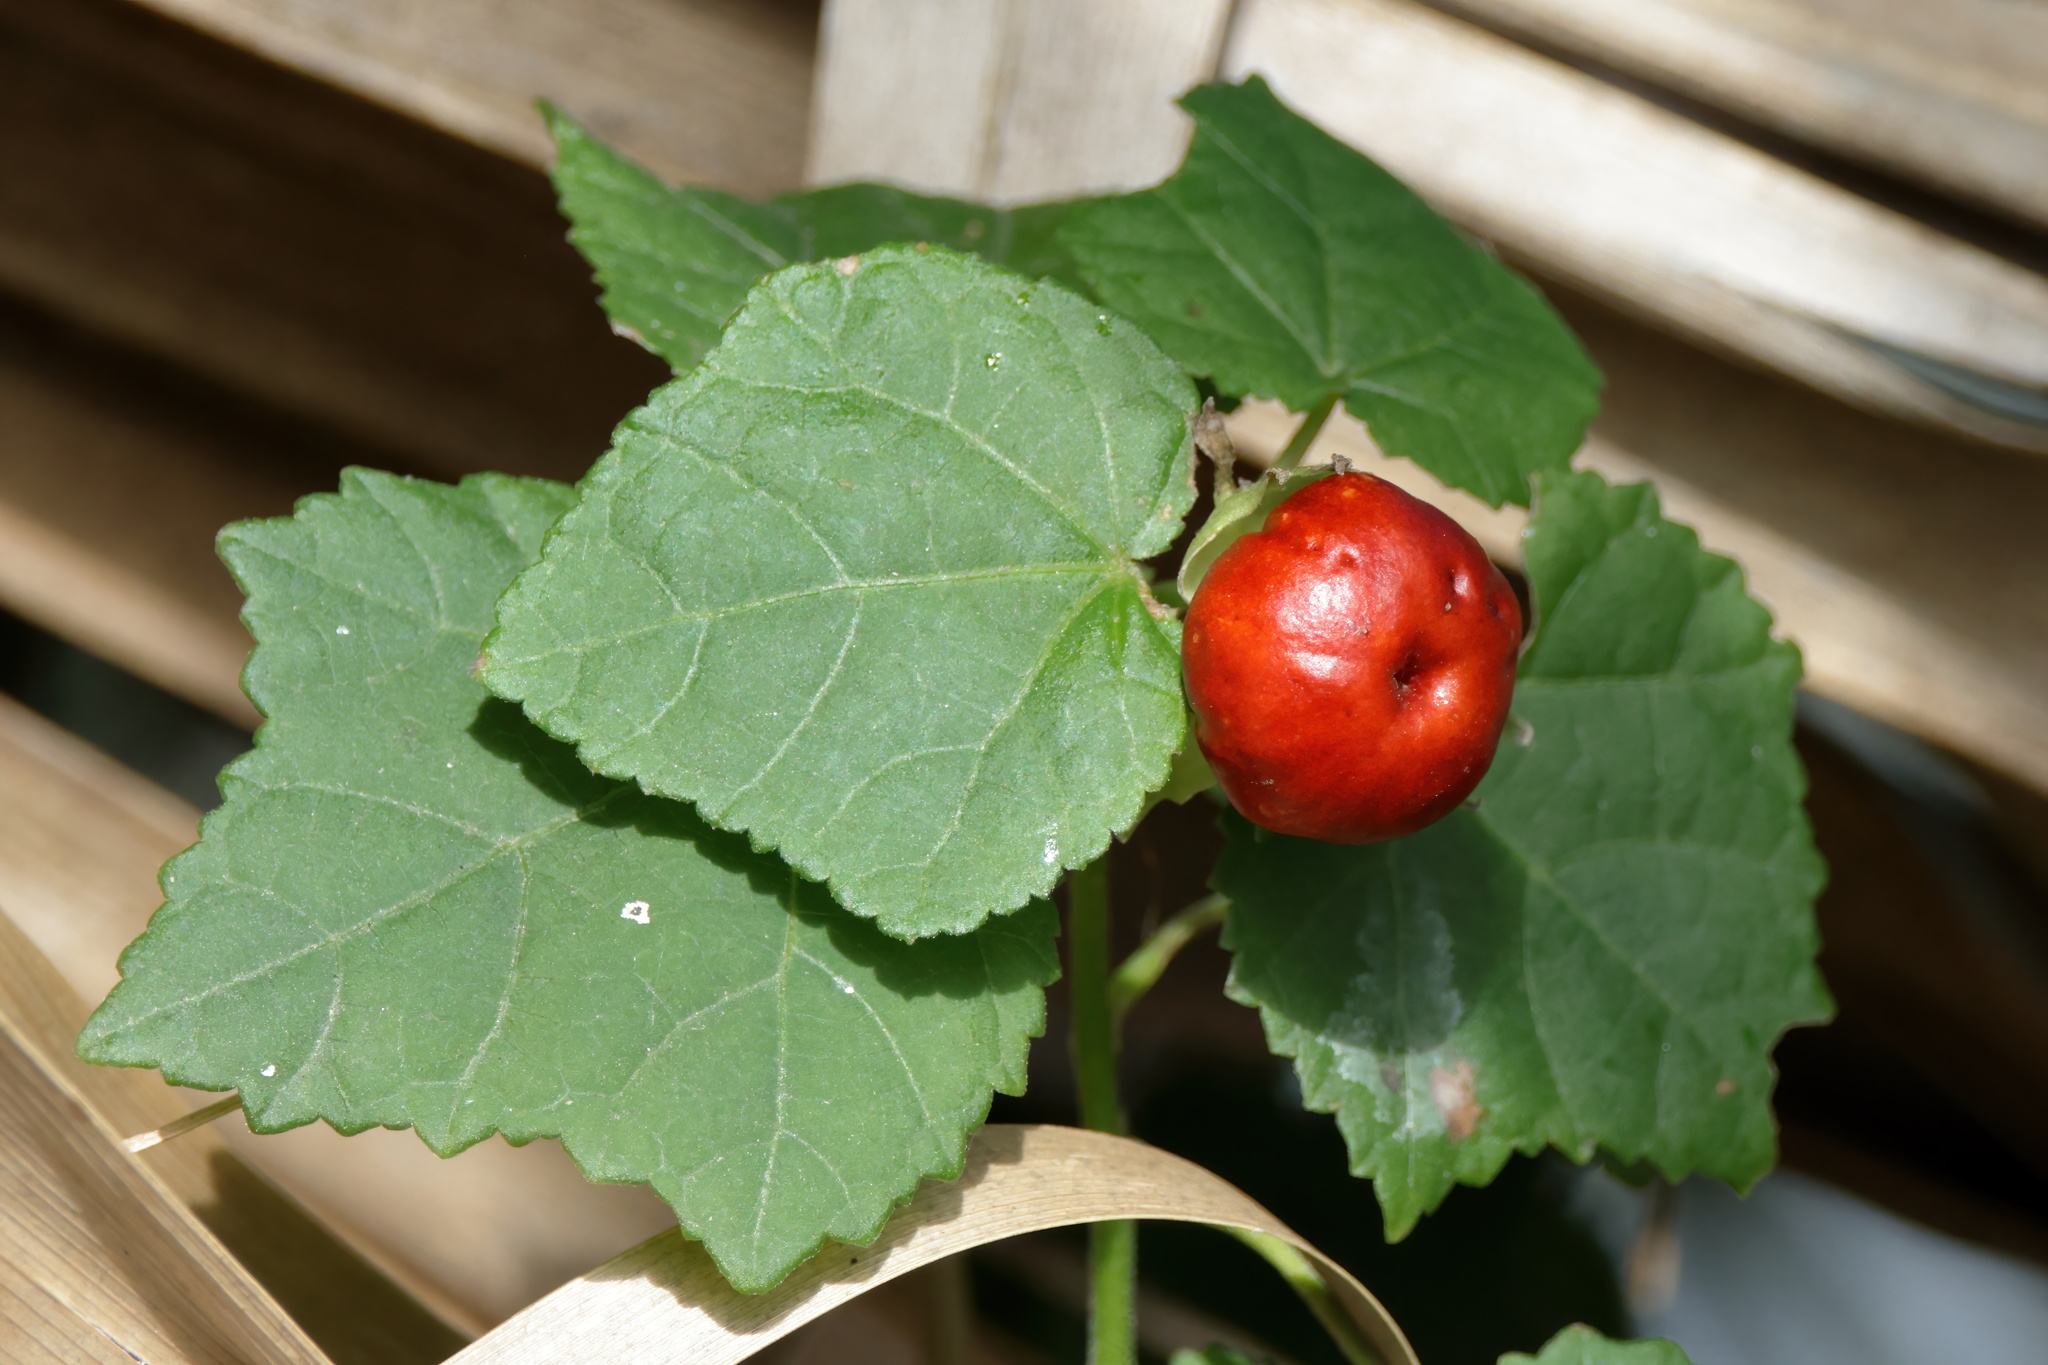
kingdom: Plantae
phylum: Tracheophyta
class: Magnoliopsida
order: Malvales
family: Malvaceae
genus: Malvaviscus
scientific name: Malvaviscus arboreus
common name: Wax mallow
